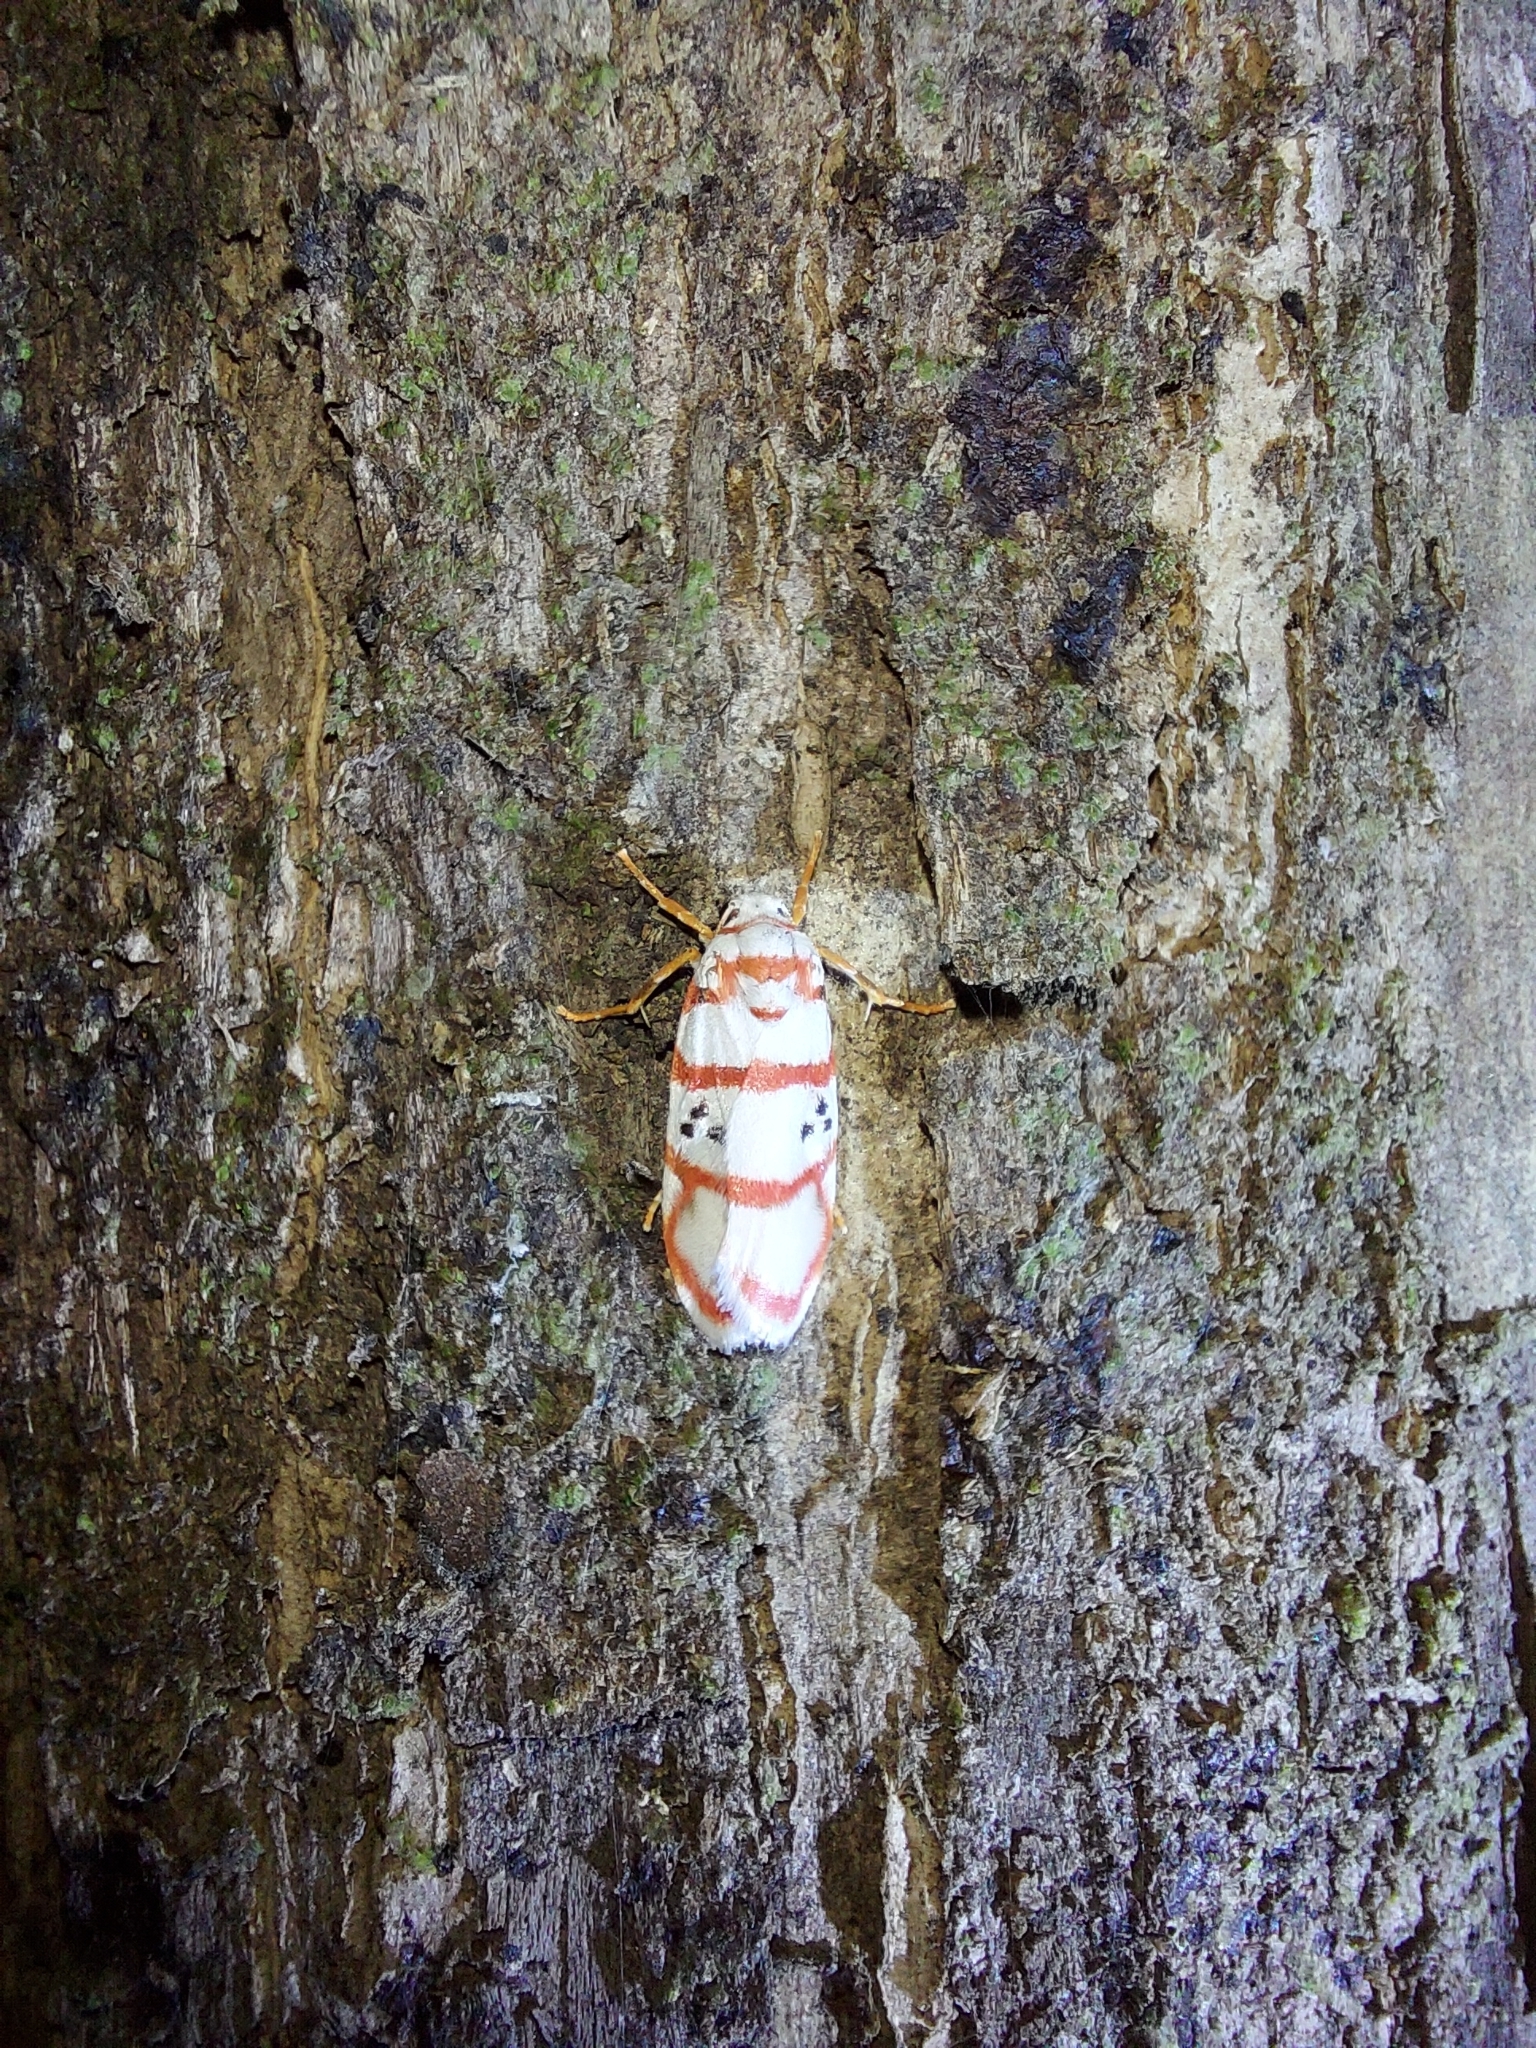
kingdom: Animalia
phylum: Arthropoda
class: Insecta
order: Lepidoptera
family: Erebidae
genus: Cyana
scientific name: Cyana peregrina
